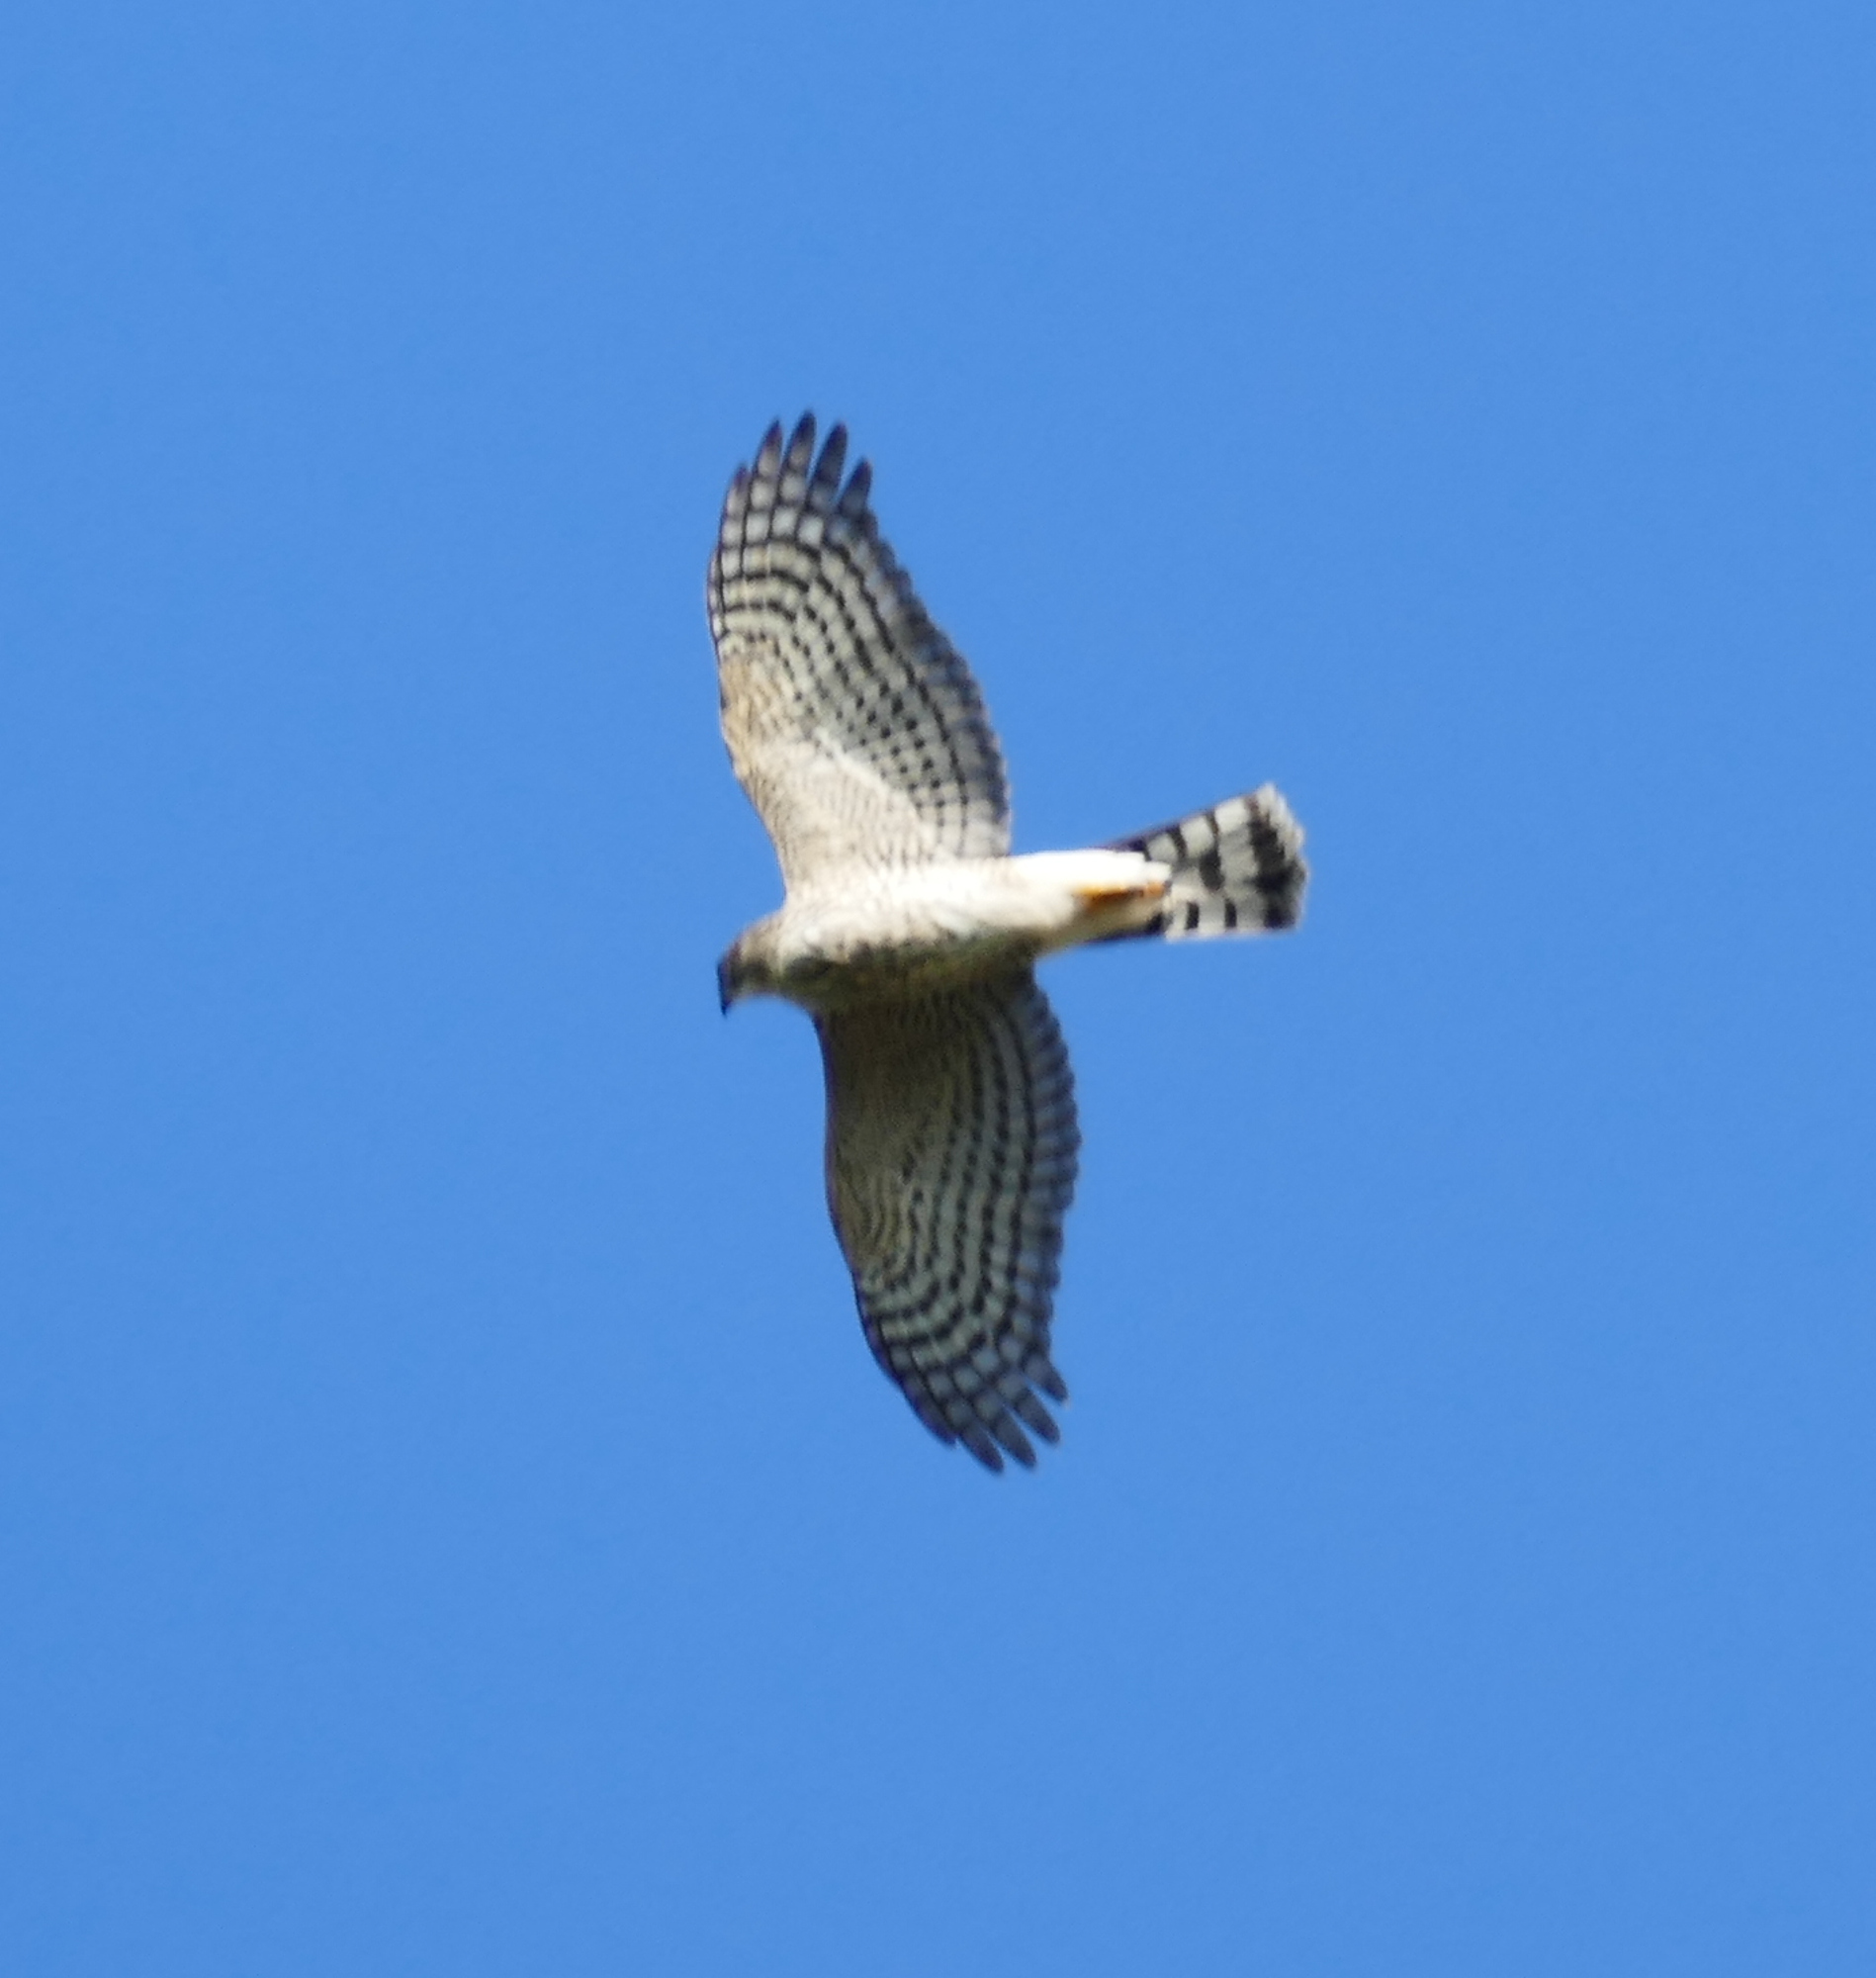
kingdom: Animalia
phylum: Chordata
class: Aves
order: Accipitriformes
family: Accipitridae
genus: Accipiter
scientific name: Accipiter striatus
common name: Sharp-shinned hawk
